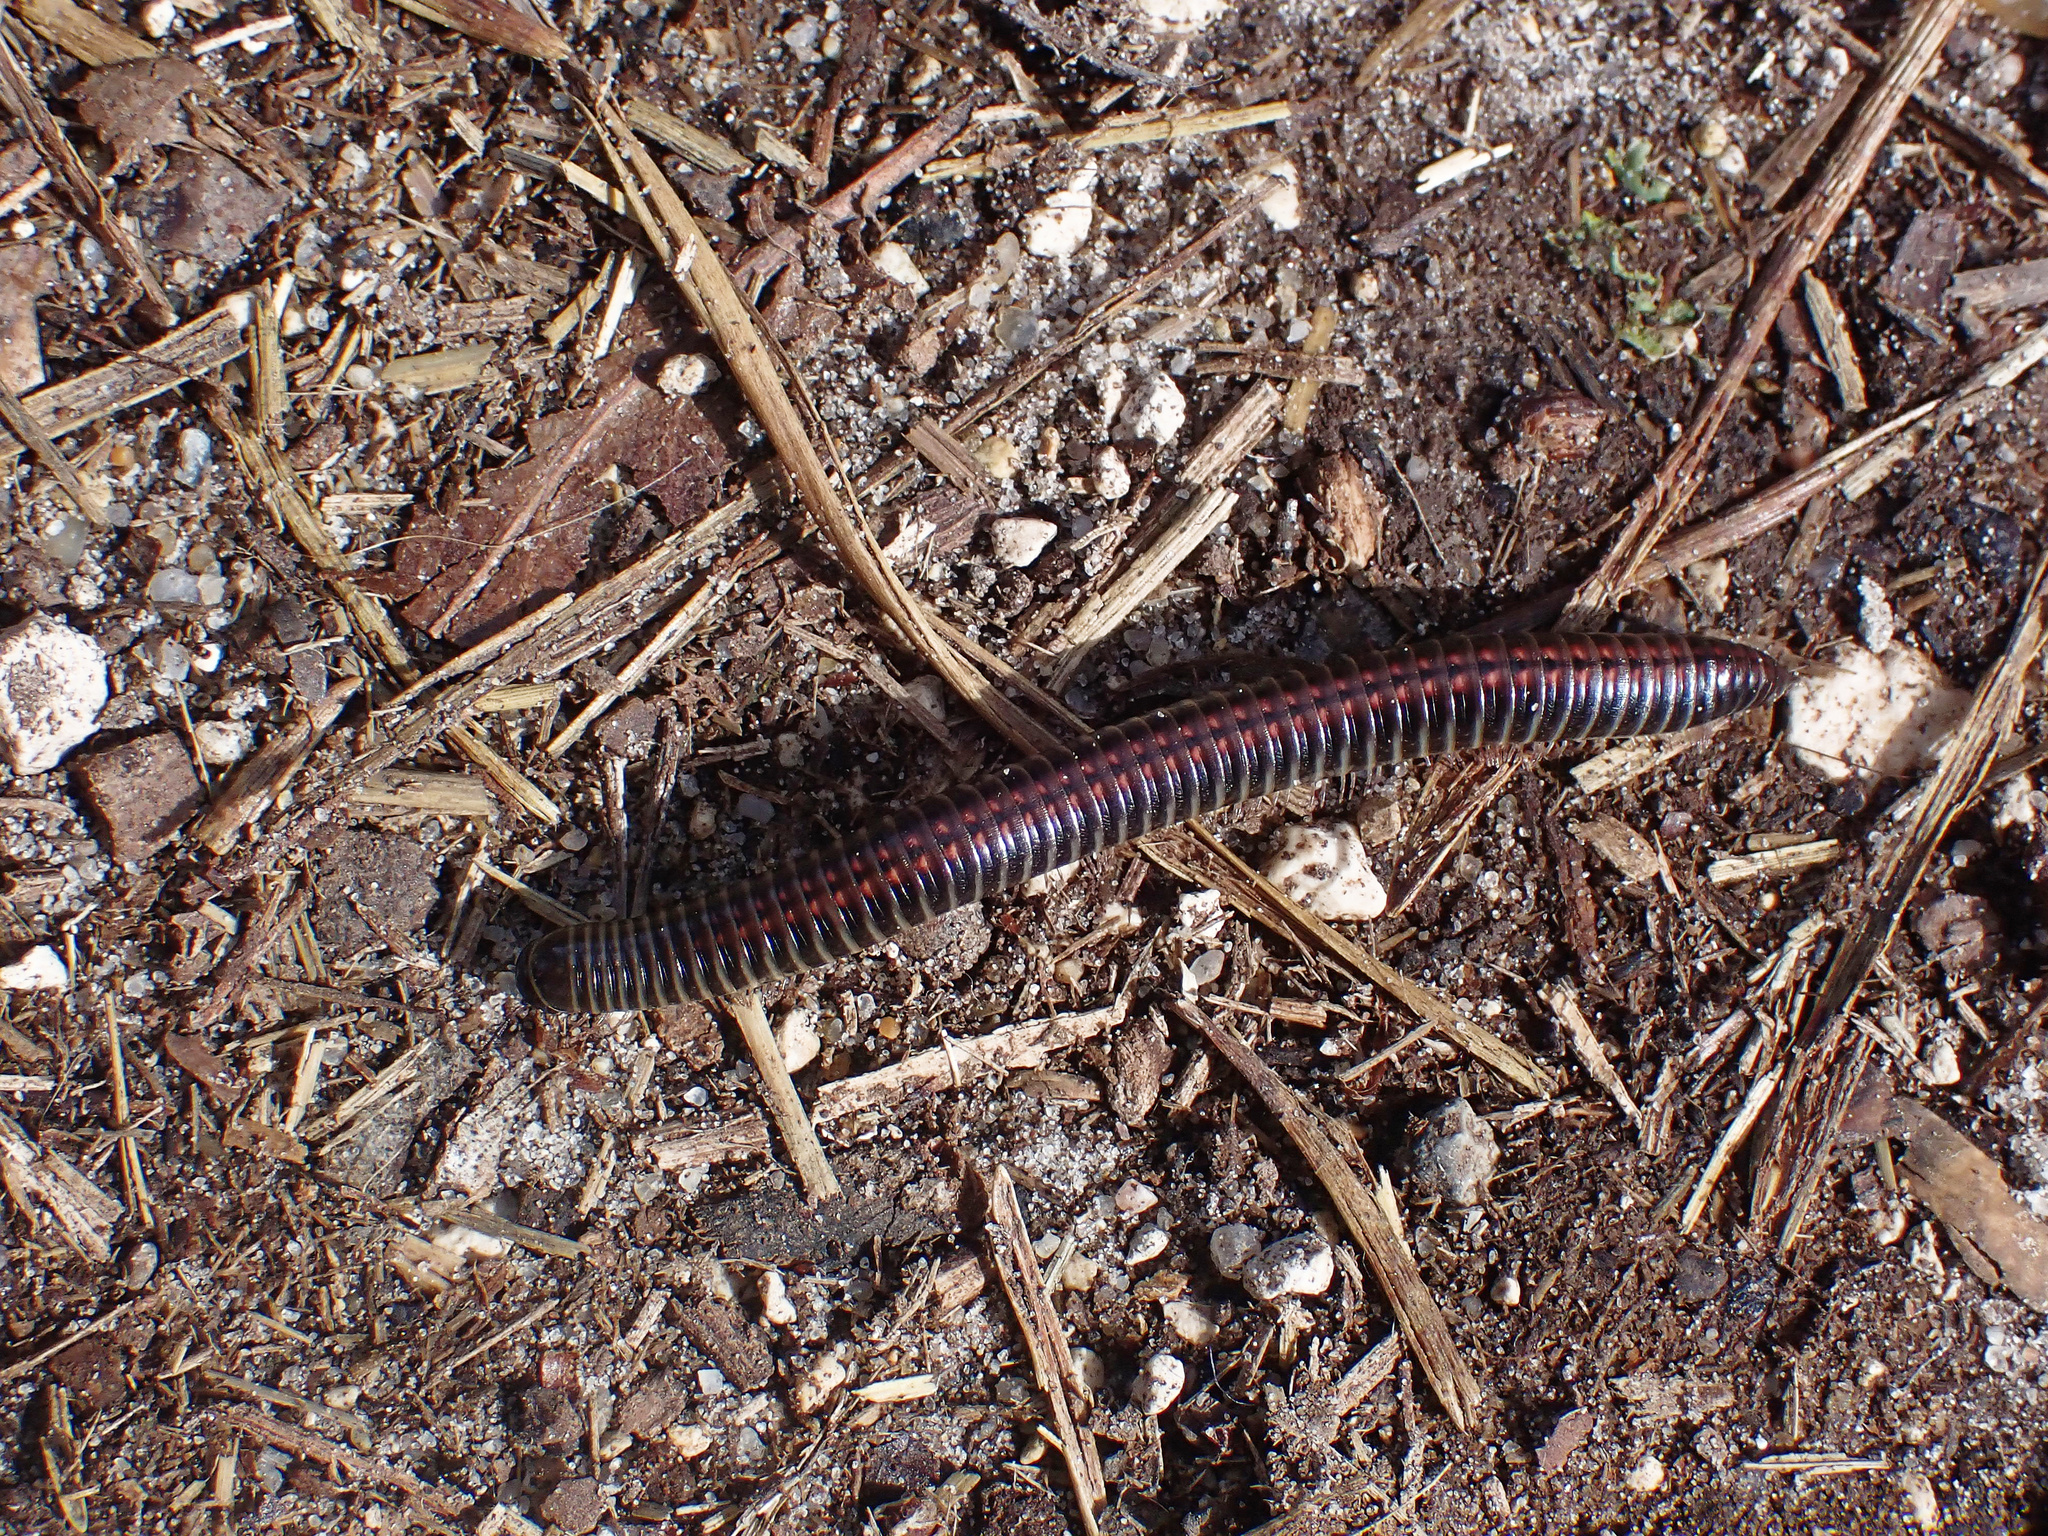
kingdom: Animalia
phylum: Arthropoda
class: Diplopoda
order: Julida
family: Julidae
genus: Ommatoiulus
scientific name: Ommatoiulus sabulosus
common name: Striped millipede
